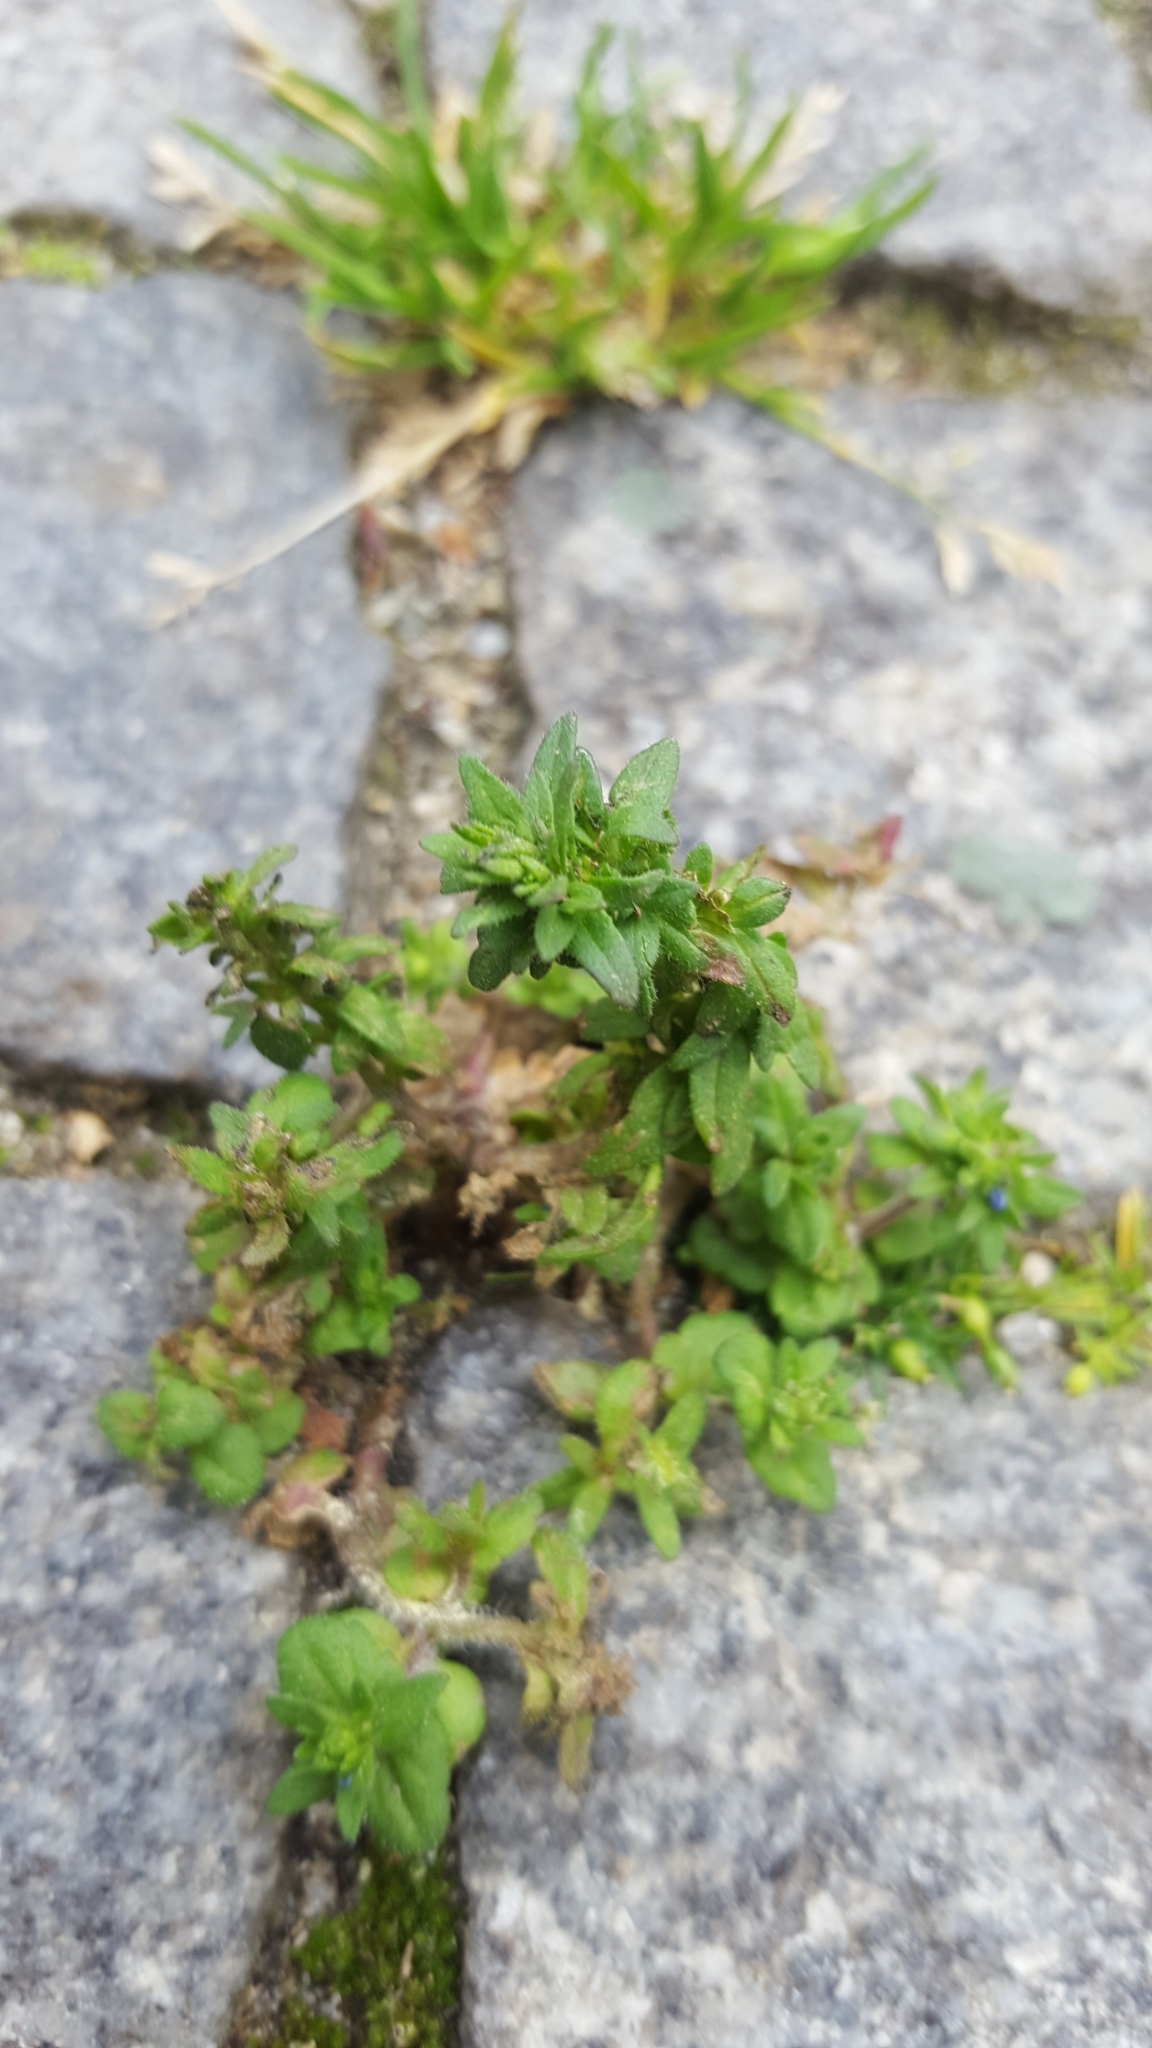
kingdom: Plantae
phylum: Tracheophyta
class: Magnoliopsida
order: Lamiales
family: Plantaginaceae
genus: Veronica
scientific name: Veronica arvensis
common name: Corn speedwell
